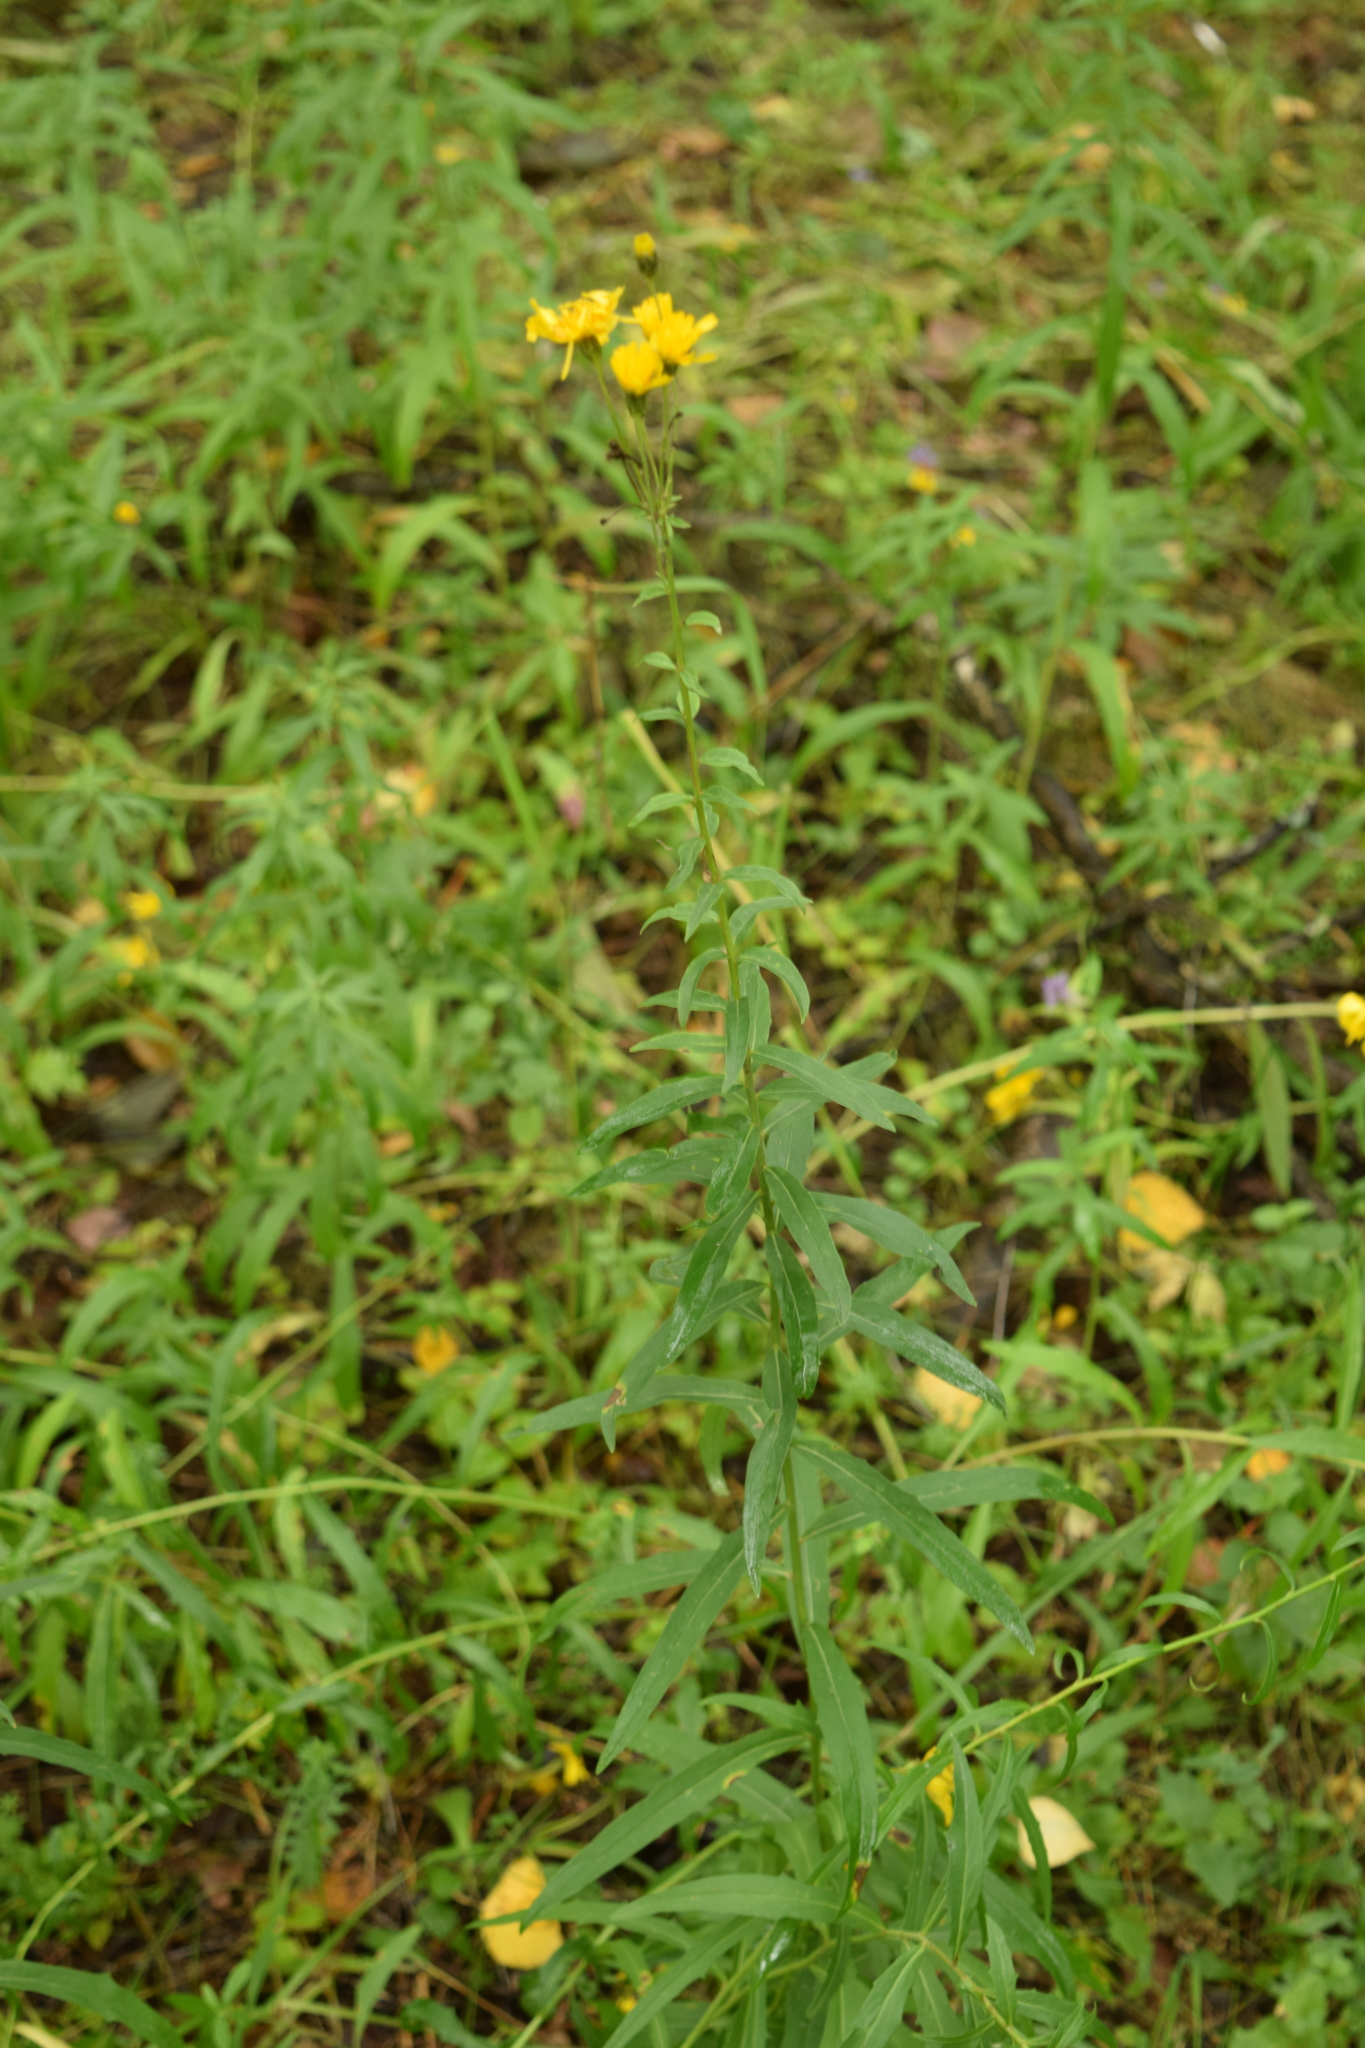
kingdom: Plantae
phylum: Tracheophyta
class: Magnoliopsida
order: Asterales
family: Asteraceae
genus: Hieracium
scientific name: Hieracium umbellatum
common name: Northern hawkweed
